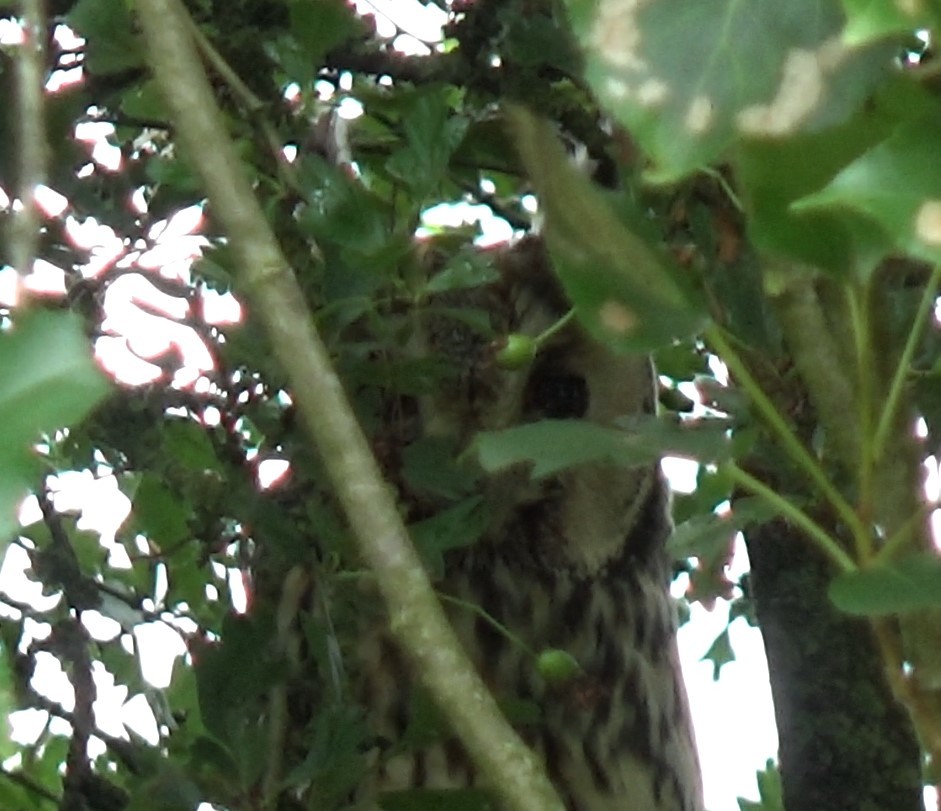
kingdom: Animalia
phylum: Chordata
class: Aves
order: Strigiformes
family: Strigidae
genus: Asio
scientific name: Asio otus
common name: Long-eared owl
